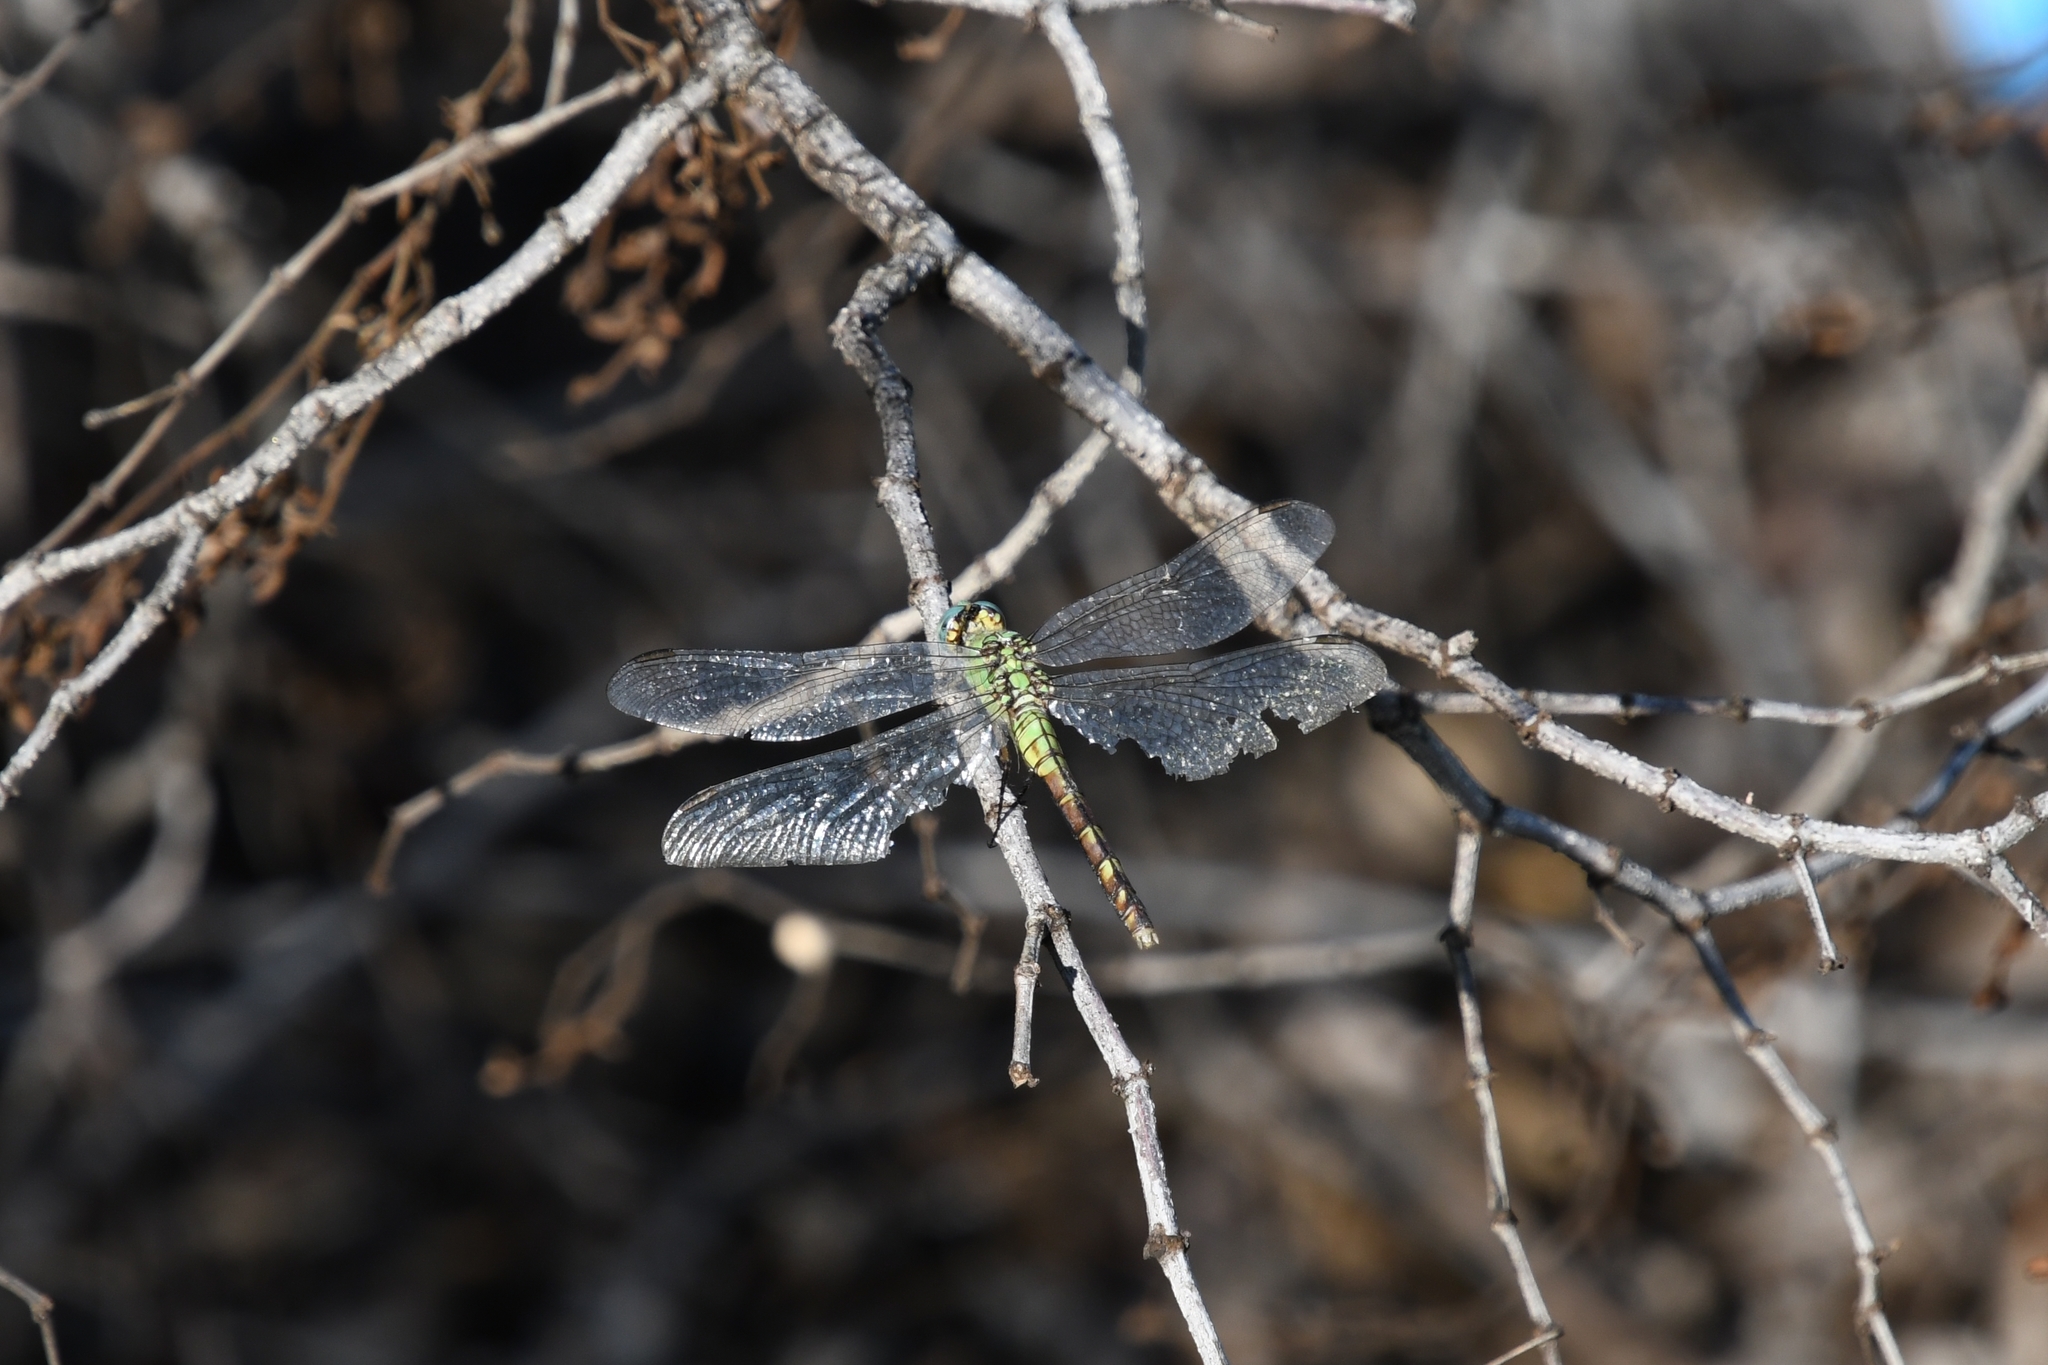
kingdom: Animalia
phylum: Arthropoda
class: Insecta
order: Odonata
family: Libellulidae
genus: Erythemis
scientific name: Erythemis collocata
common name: Western pondhawk
